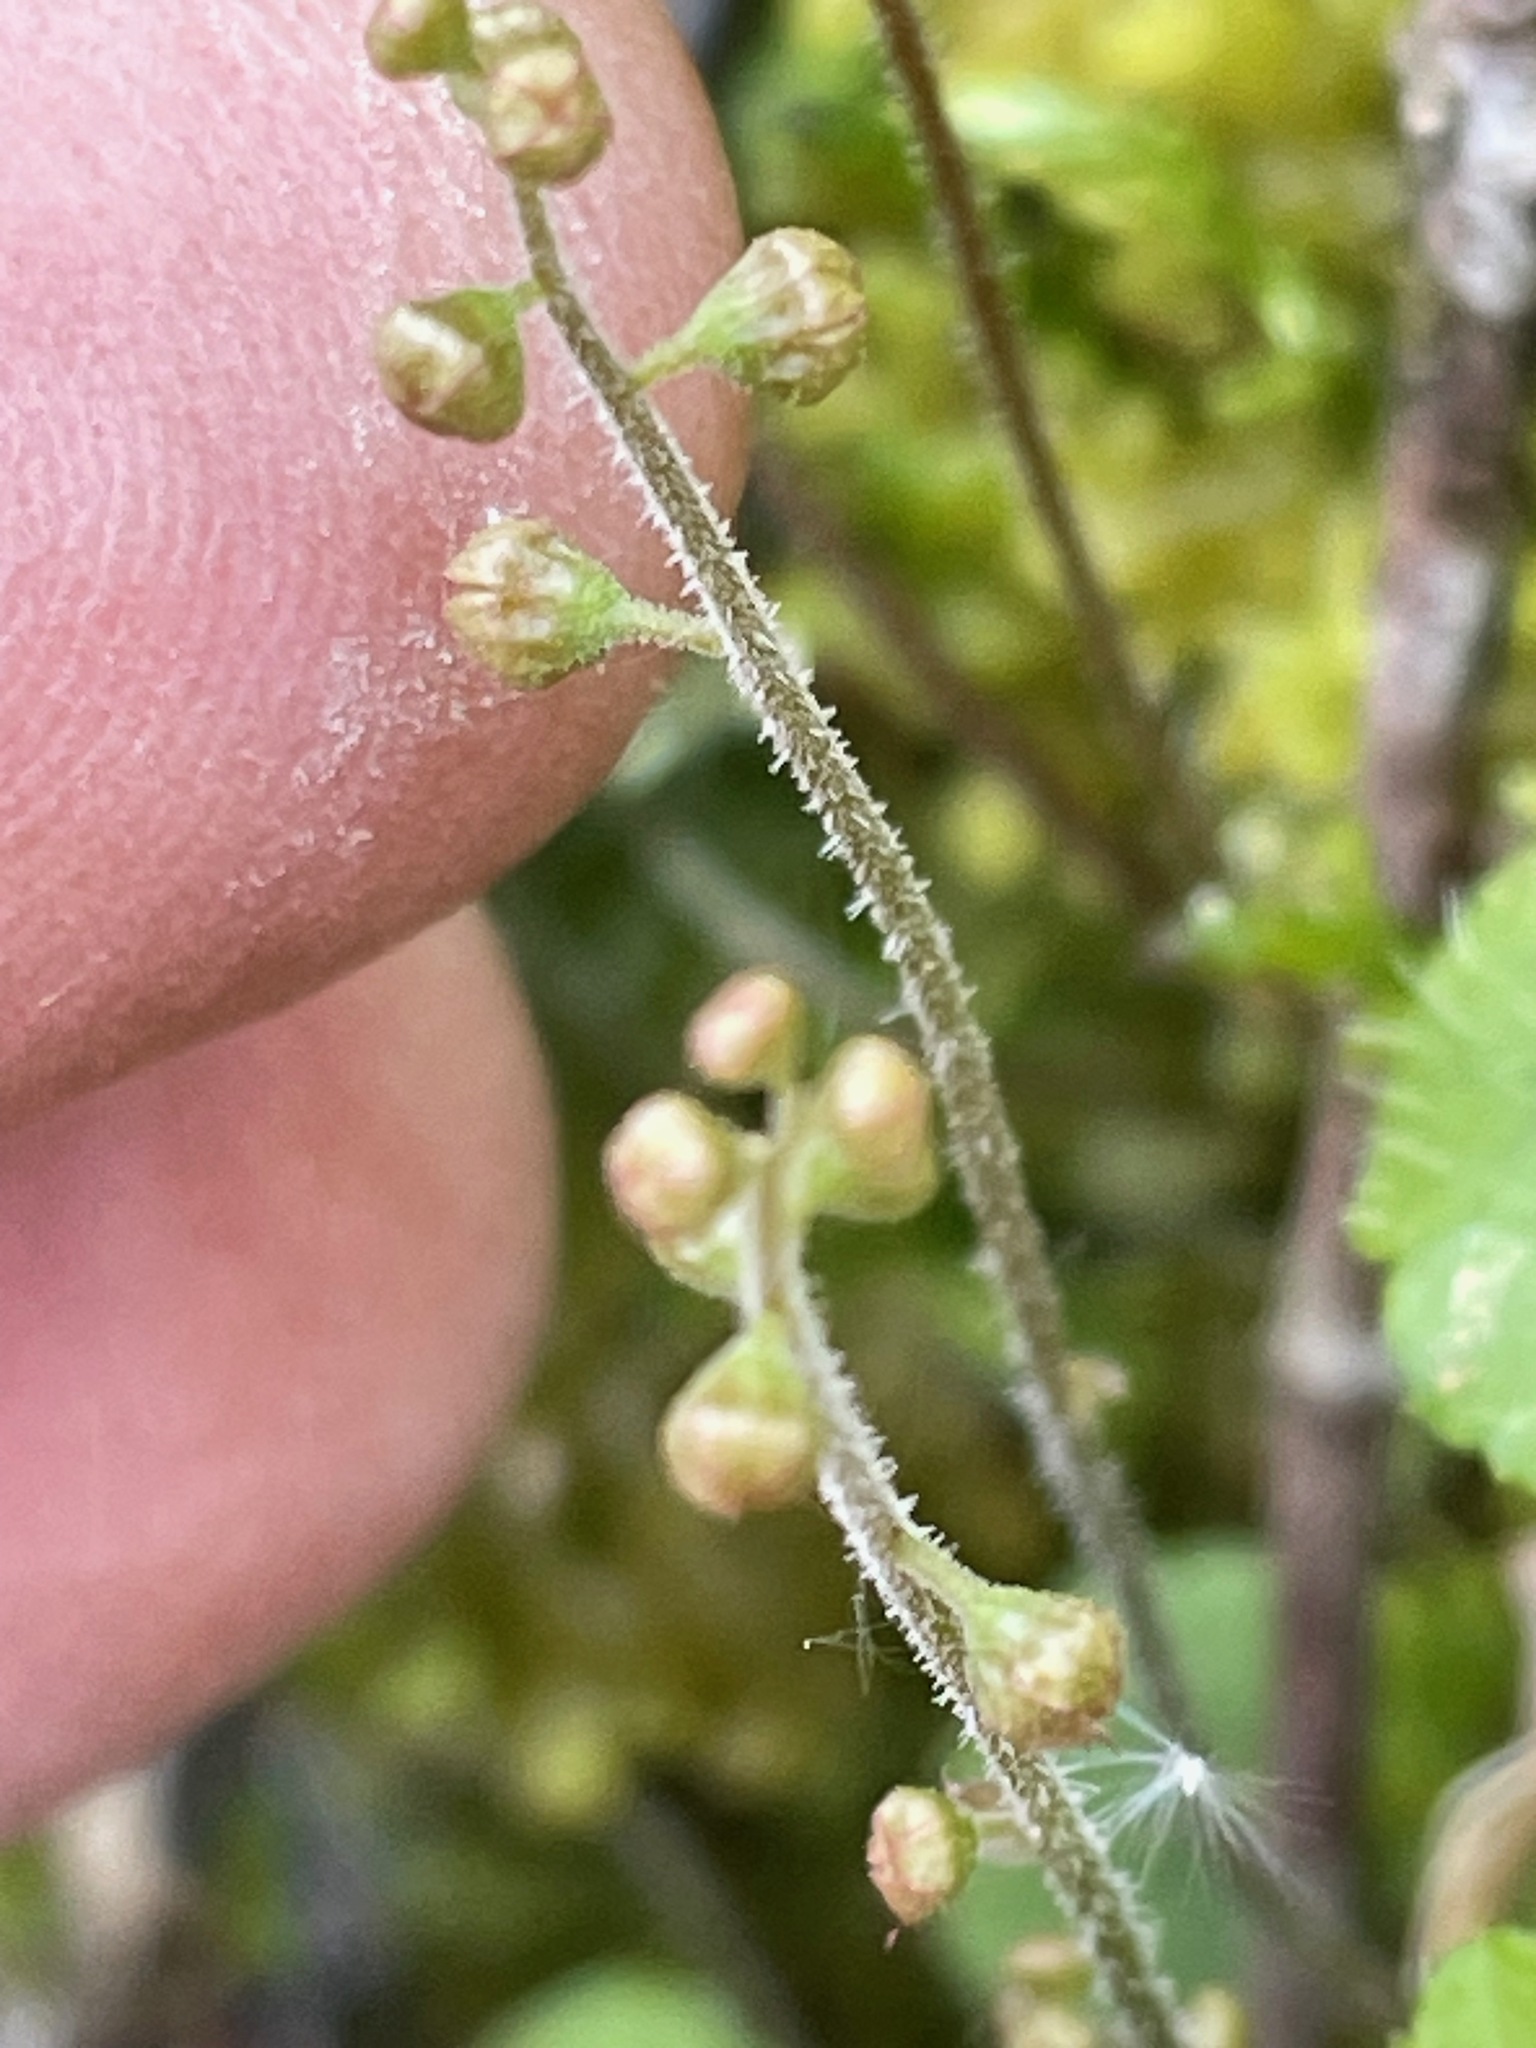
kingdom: Plantae
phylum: Tracheophyta
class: Magnoliopsida
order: Saxifragales
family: Saxifragaceae
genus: Mitella
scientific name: Mitella nuda
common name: Bare-stemmed bishop's-cap
